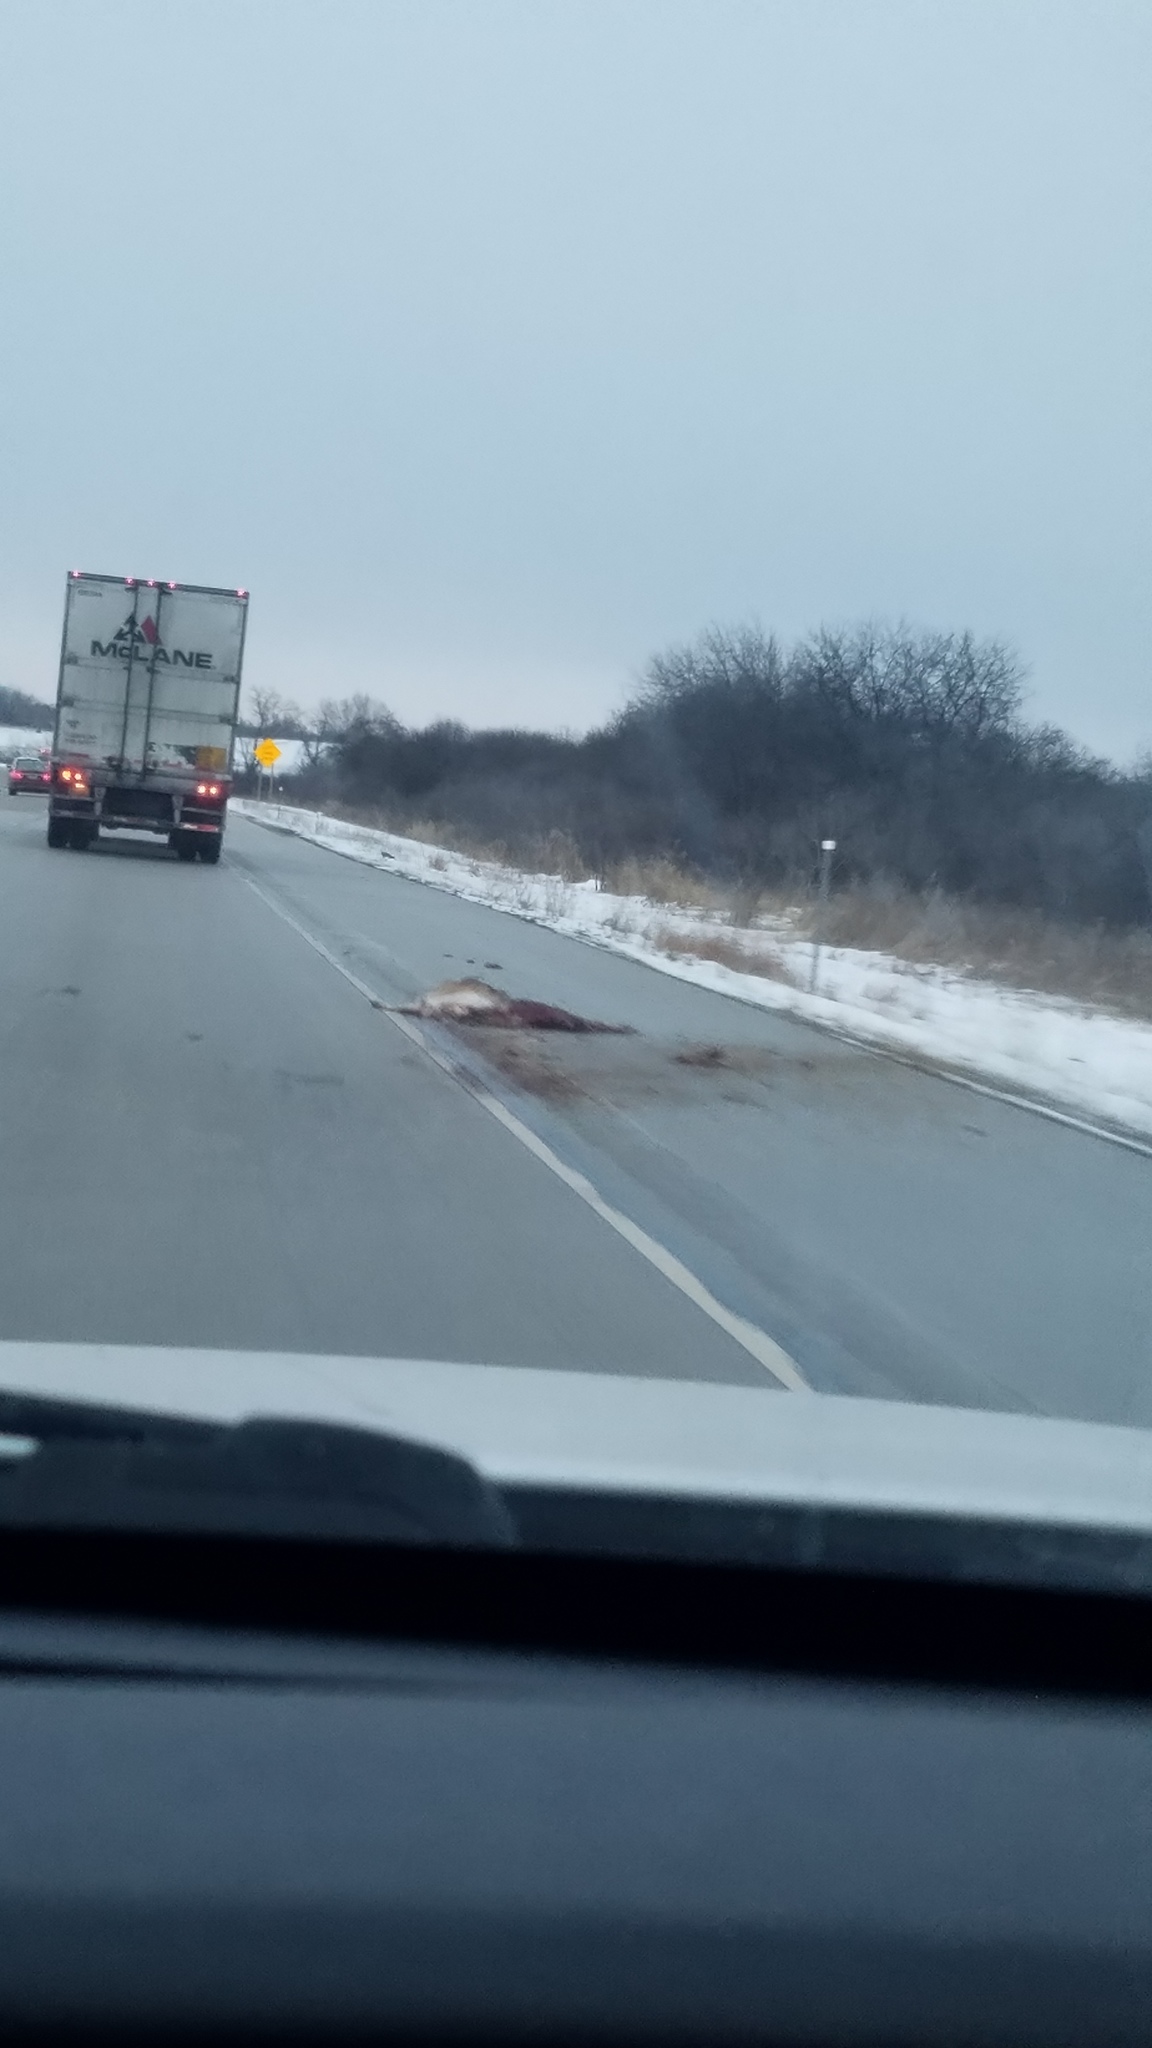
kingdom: Animalia
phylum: Chordata
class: Mammalia
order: Artiodactyla
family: Cervidae
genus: Odocoileus
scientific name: Odocoileus virginianus
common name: White-tailed deer
